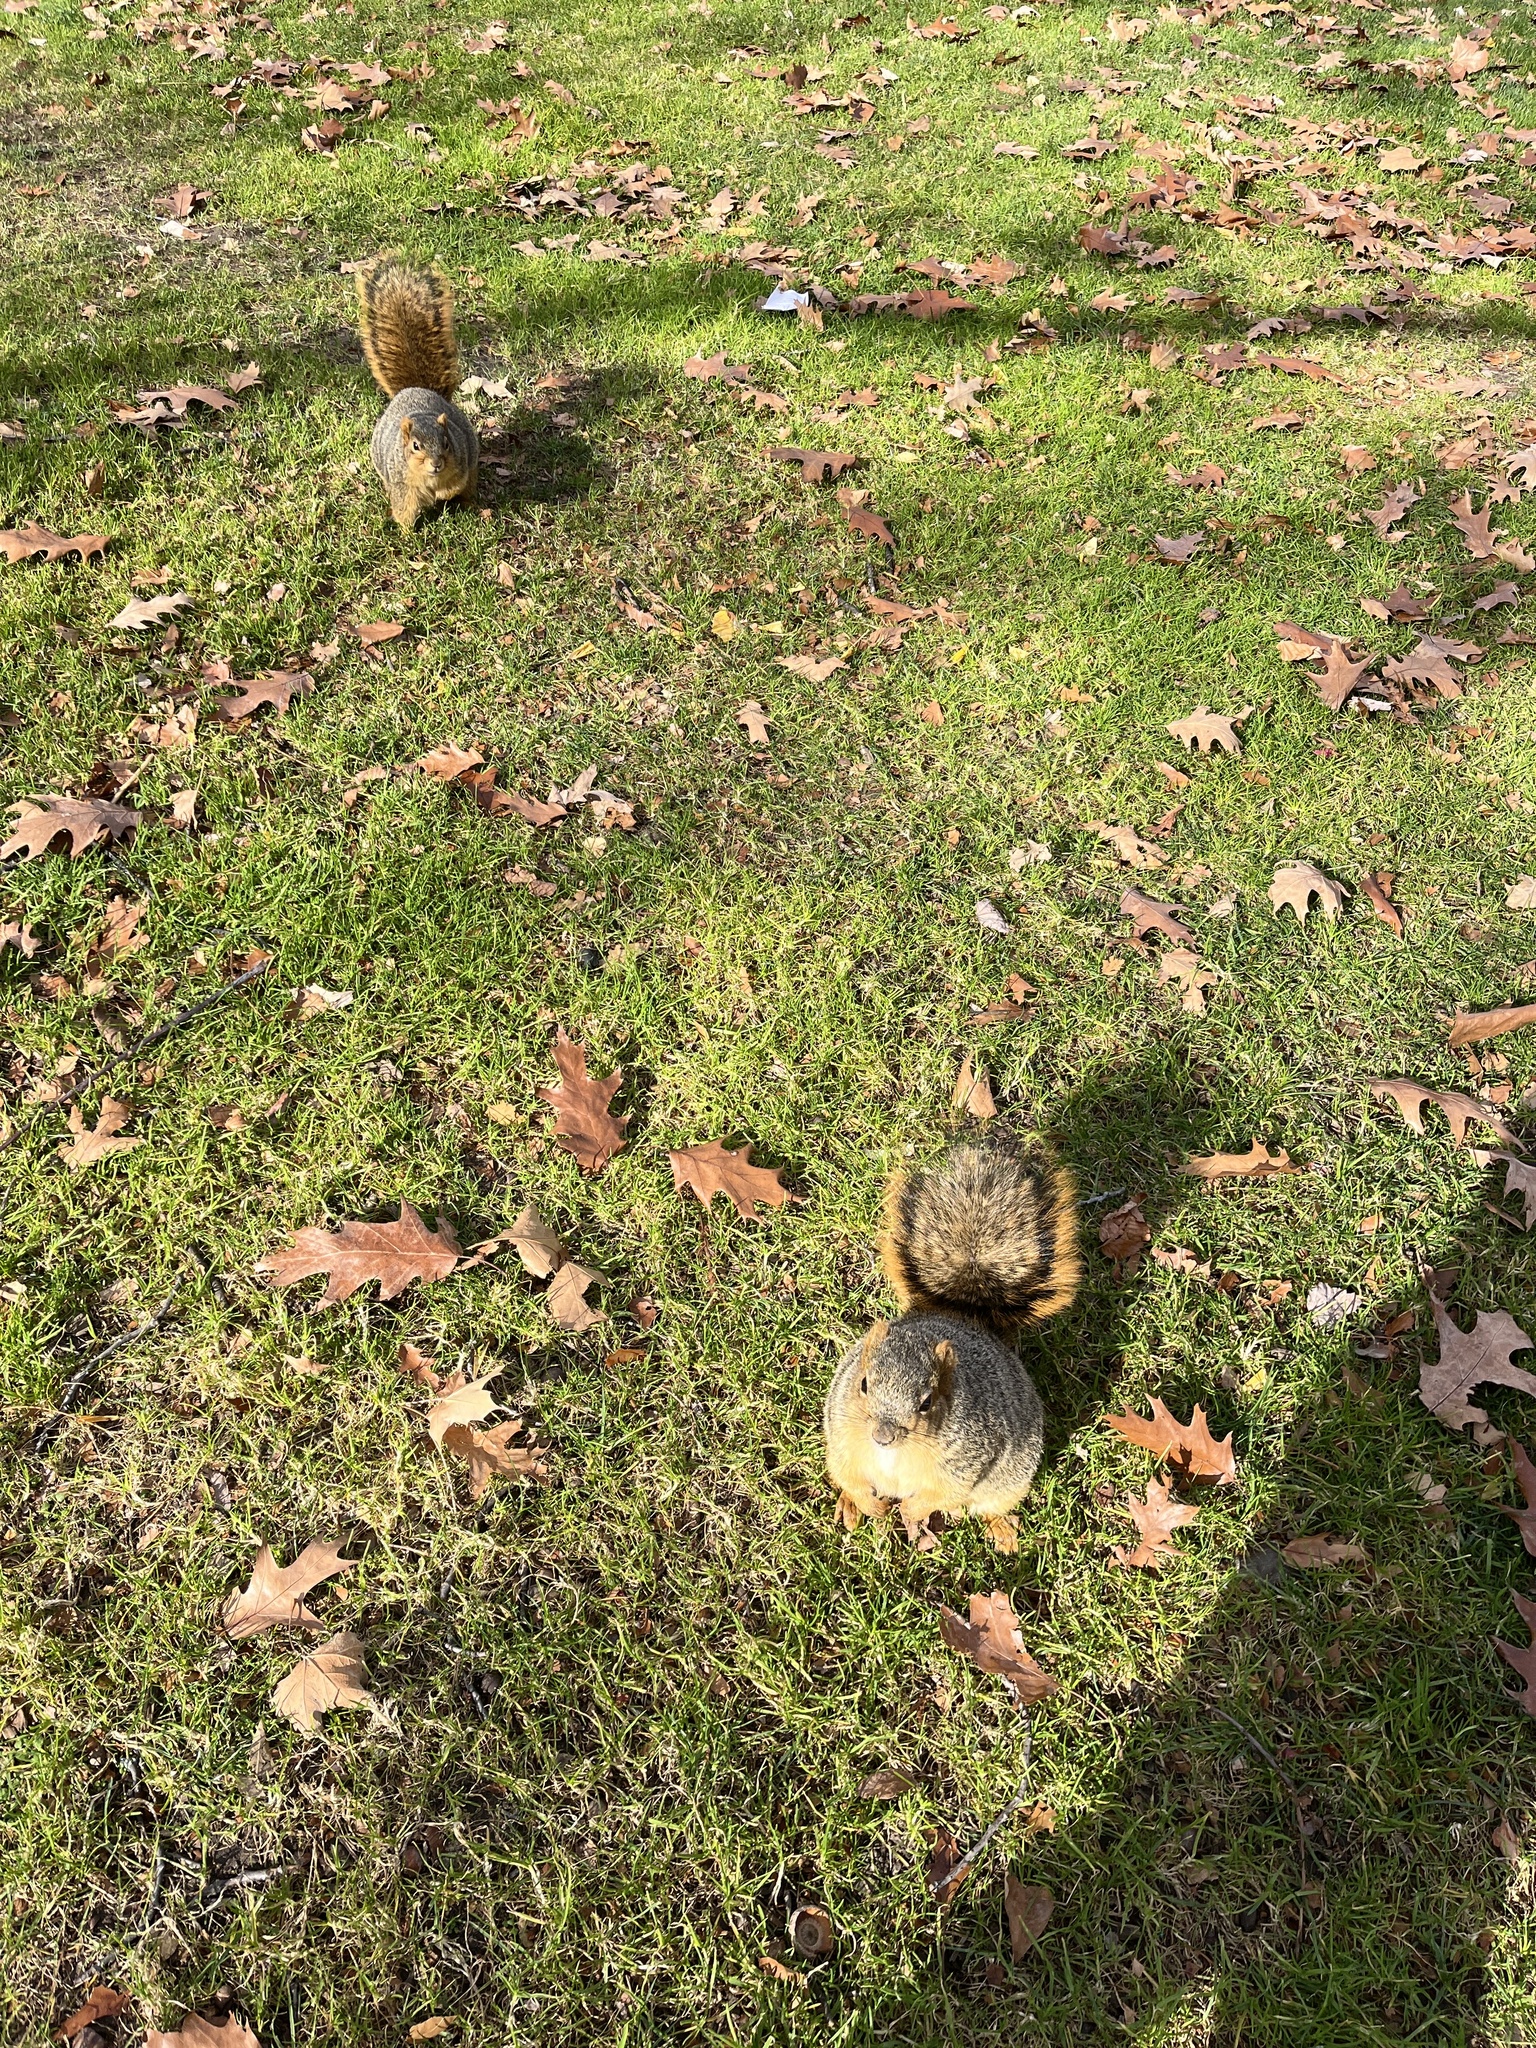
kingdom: Animalia
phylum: Chordata
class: Mammalia
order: Rodentia
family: Sciuridae
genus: Sciurus
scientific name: Sciurus niger
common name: Fox squirrel
